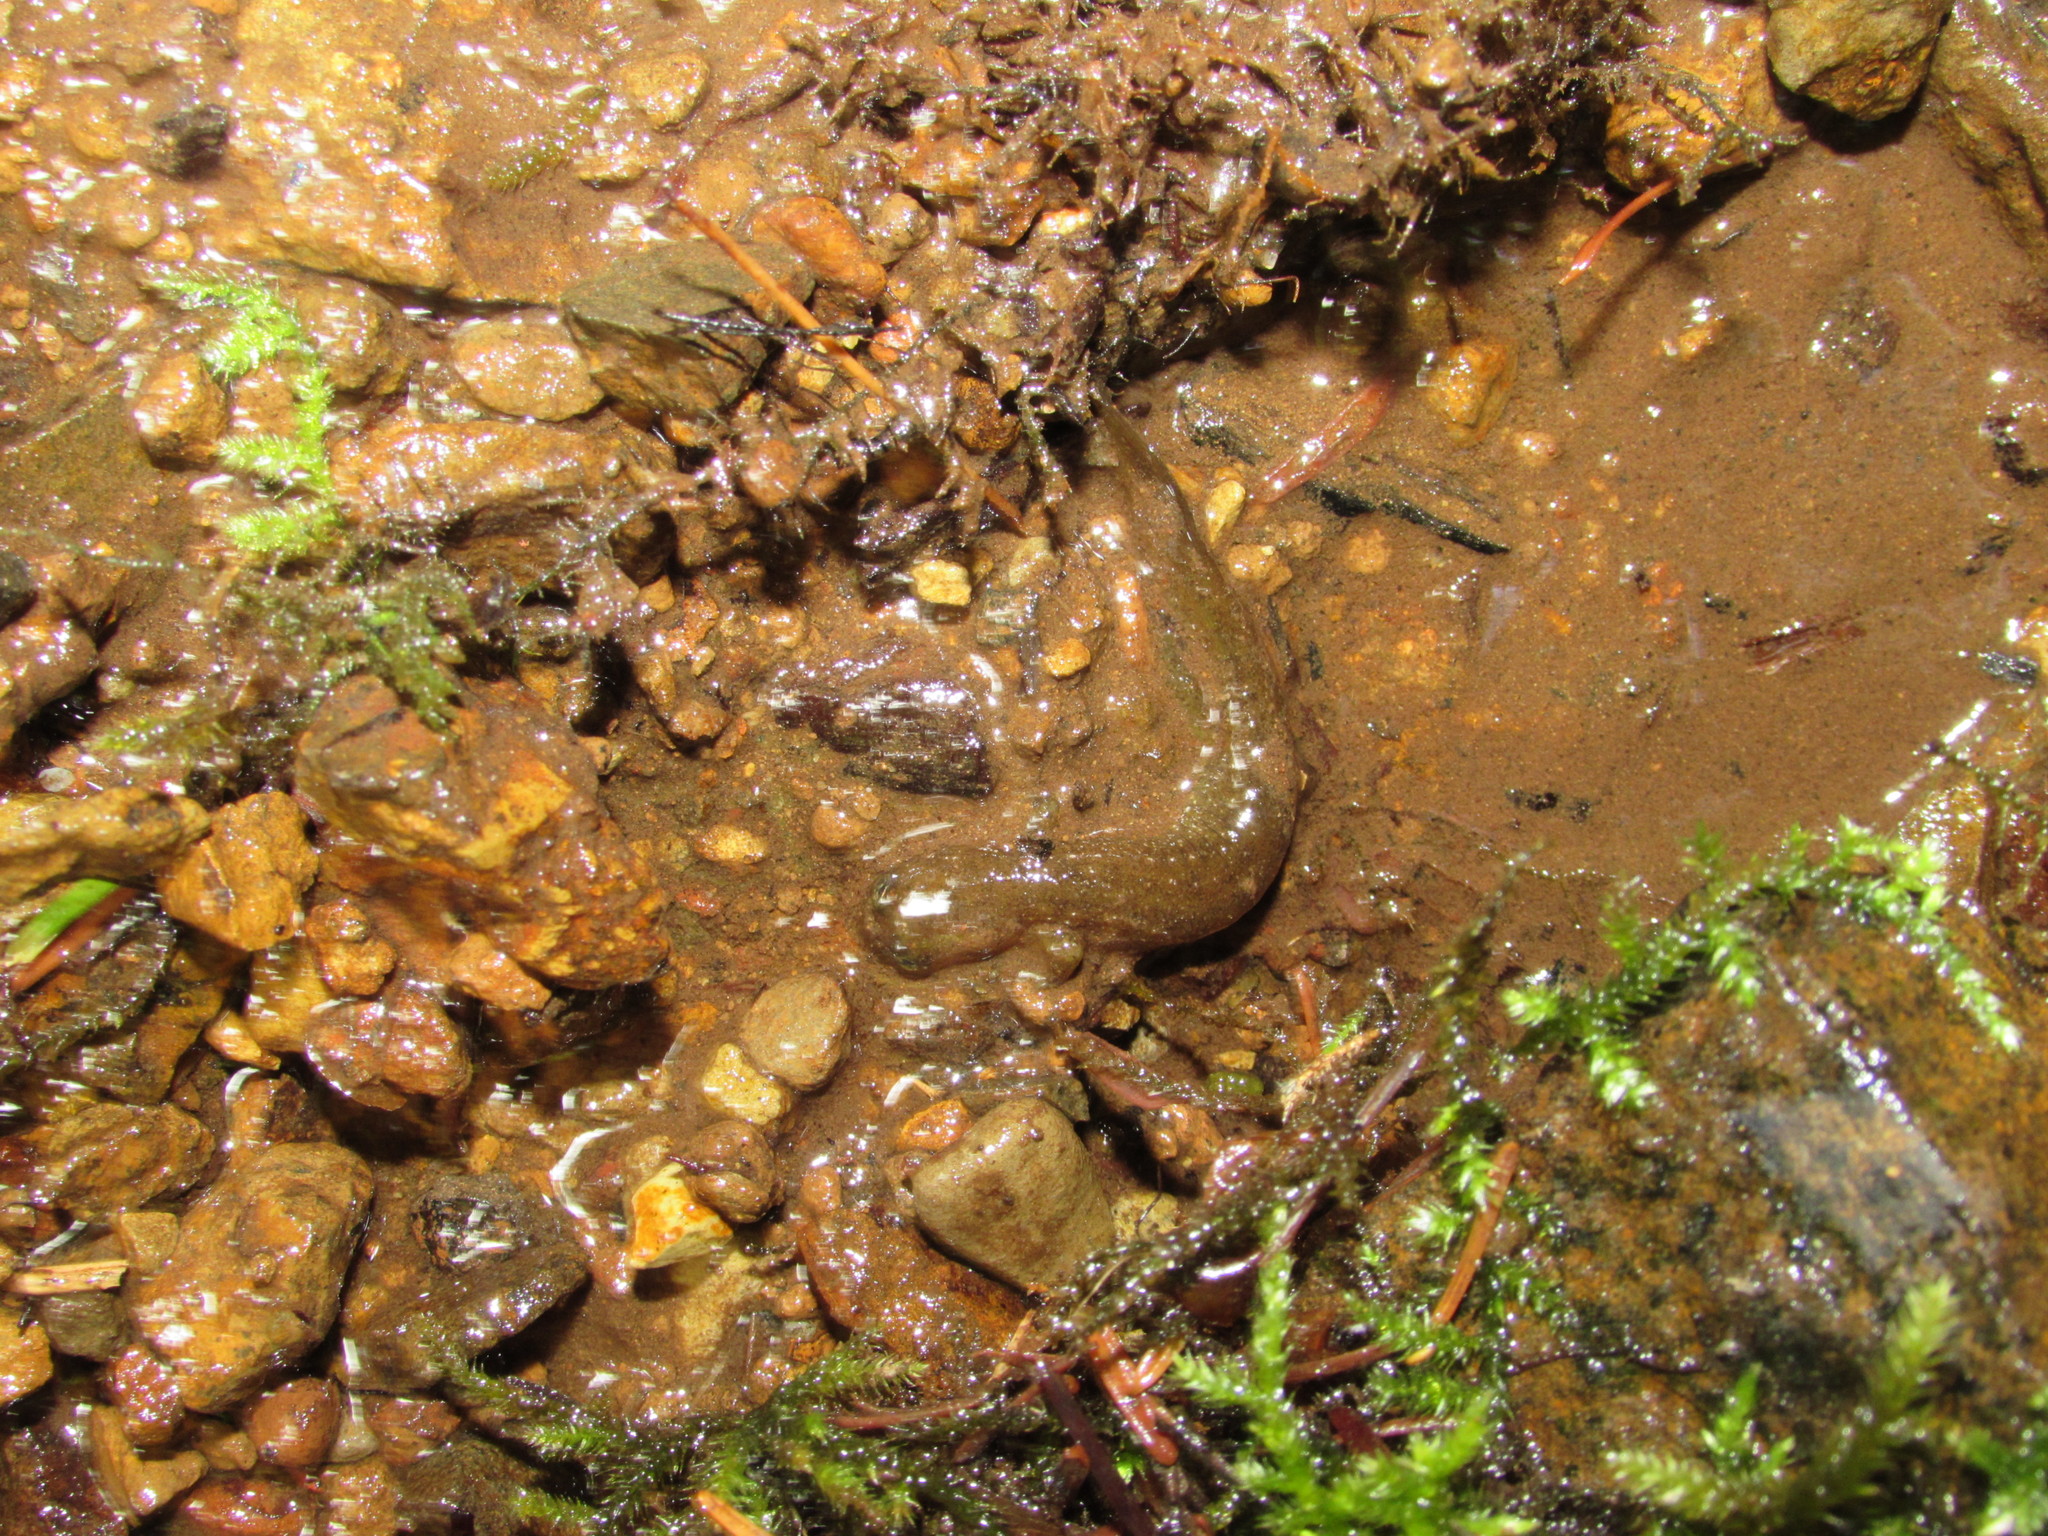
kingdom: Animalia
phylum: Chordata
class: Amphibia
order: Caudata
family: Rhyacotritonidae
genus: Rhyacotriton
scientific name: Rhyacotriton kezeri
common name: Columbia torrent salamander
